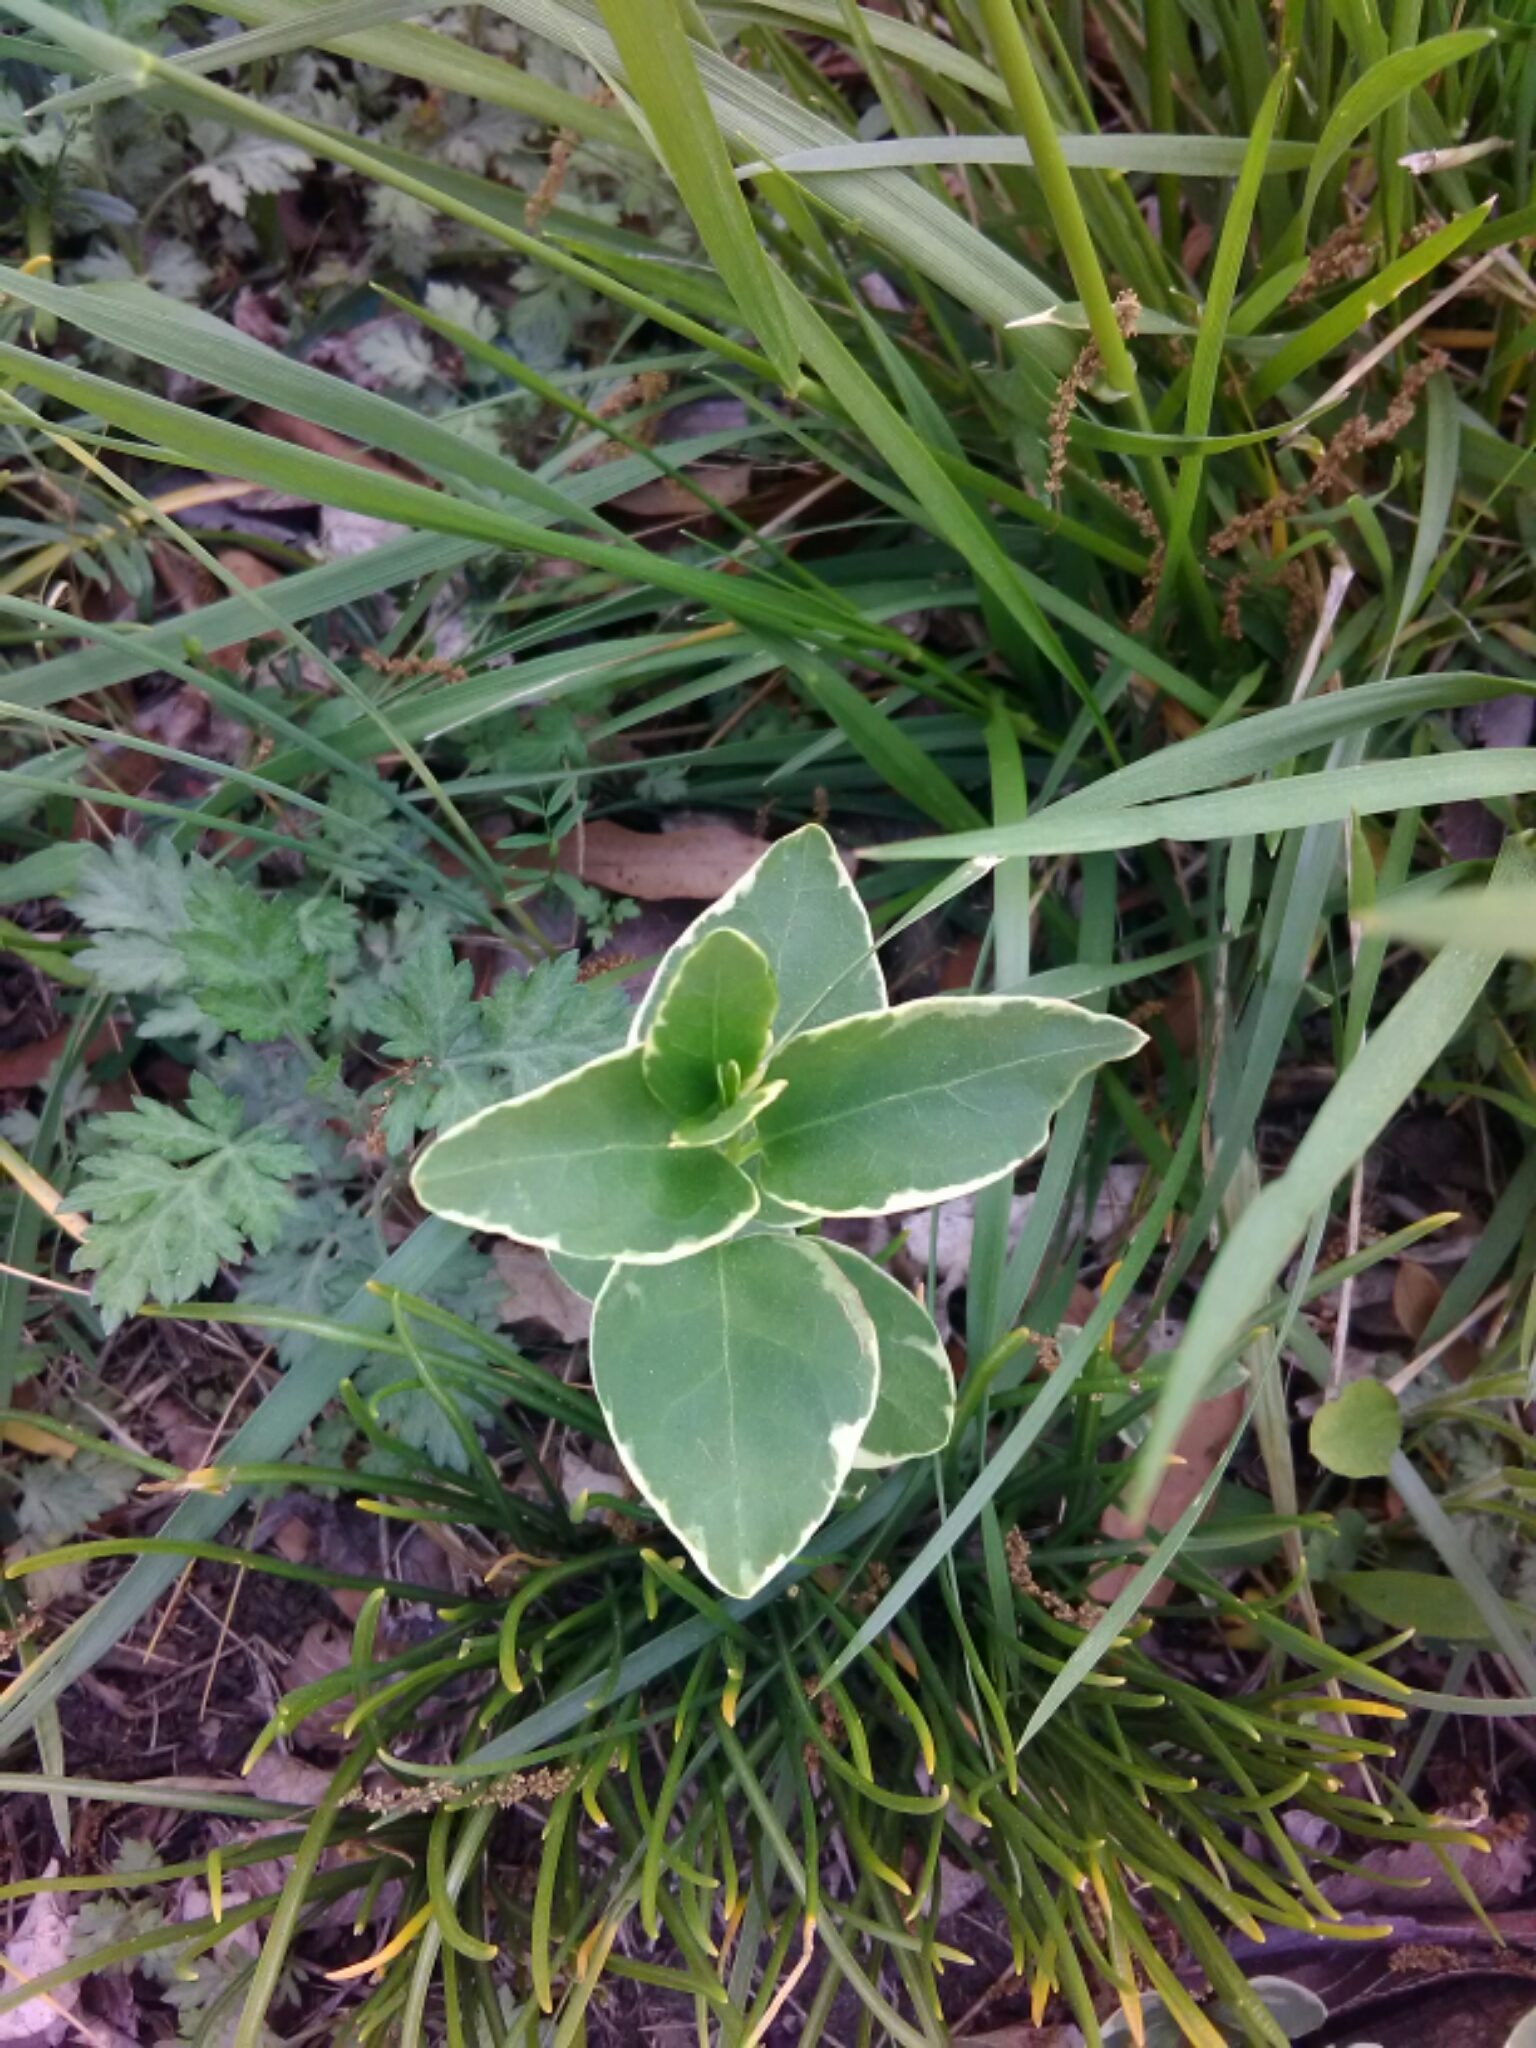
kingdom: Plantae
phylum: Tracheophyta
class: Magnoliopsida
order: Gentianales
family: Apocynaceae
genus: Vinca
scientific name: Vinca major
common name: Greater periwinkle
